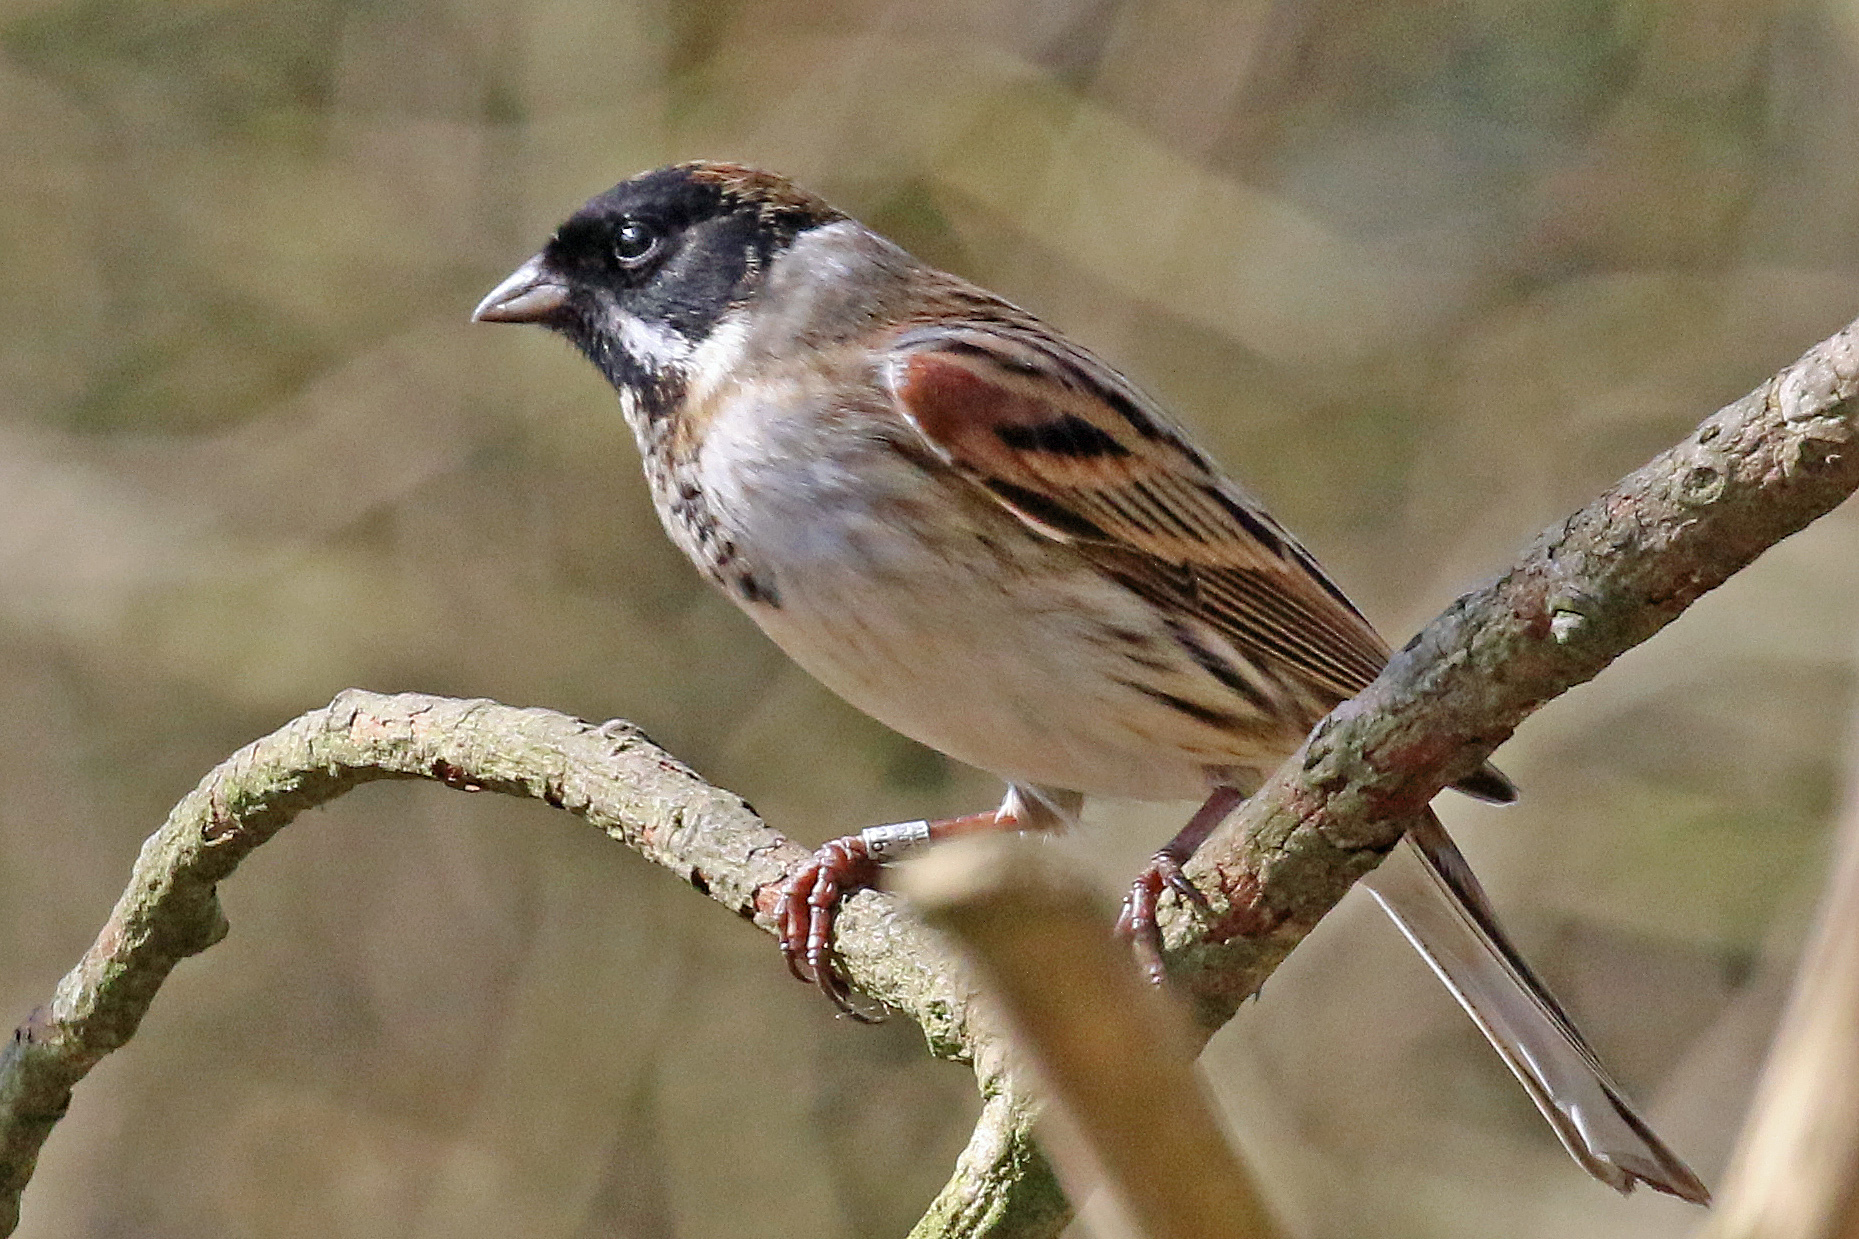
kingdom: Animalia
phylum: Chordata
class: Aves
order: Passeriformes
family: Emberizidae
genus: Emberiza
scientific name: Emberiza schoeniclus
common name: Reed bunting
